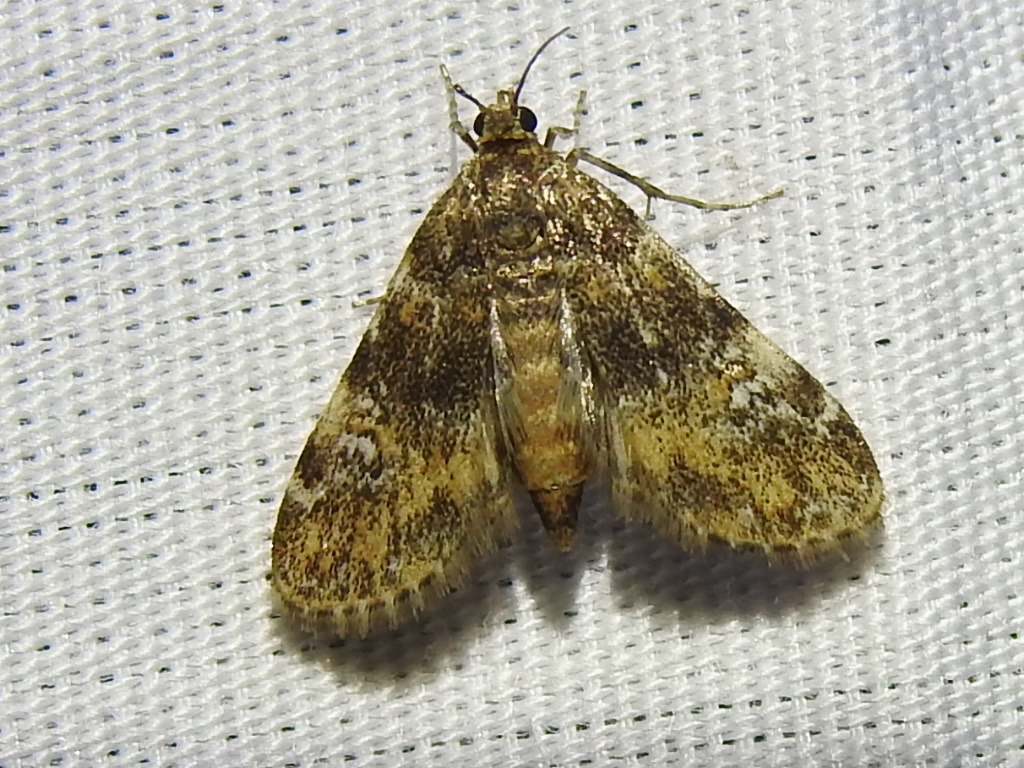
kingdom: Animalia
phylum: Arthropoda
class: Insecta
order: Lepidoptera
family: Crambidae
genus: Elophila
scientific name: Elophila obliteralis
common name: Waterlily leafcutter moth
